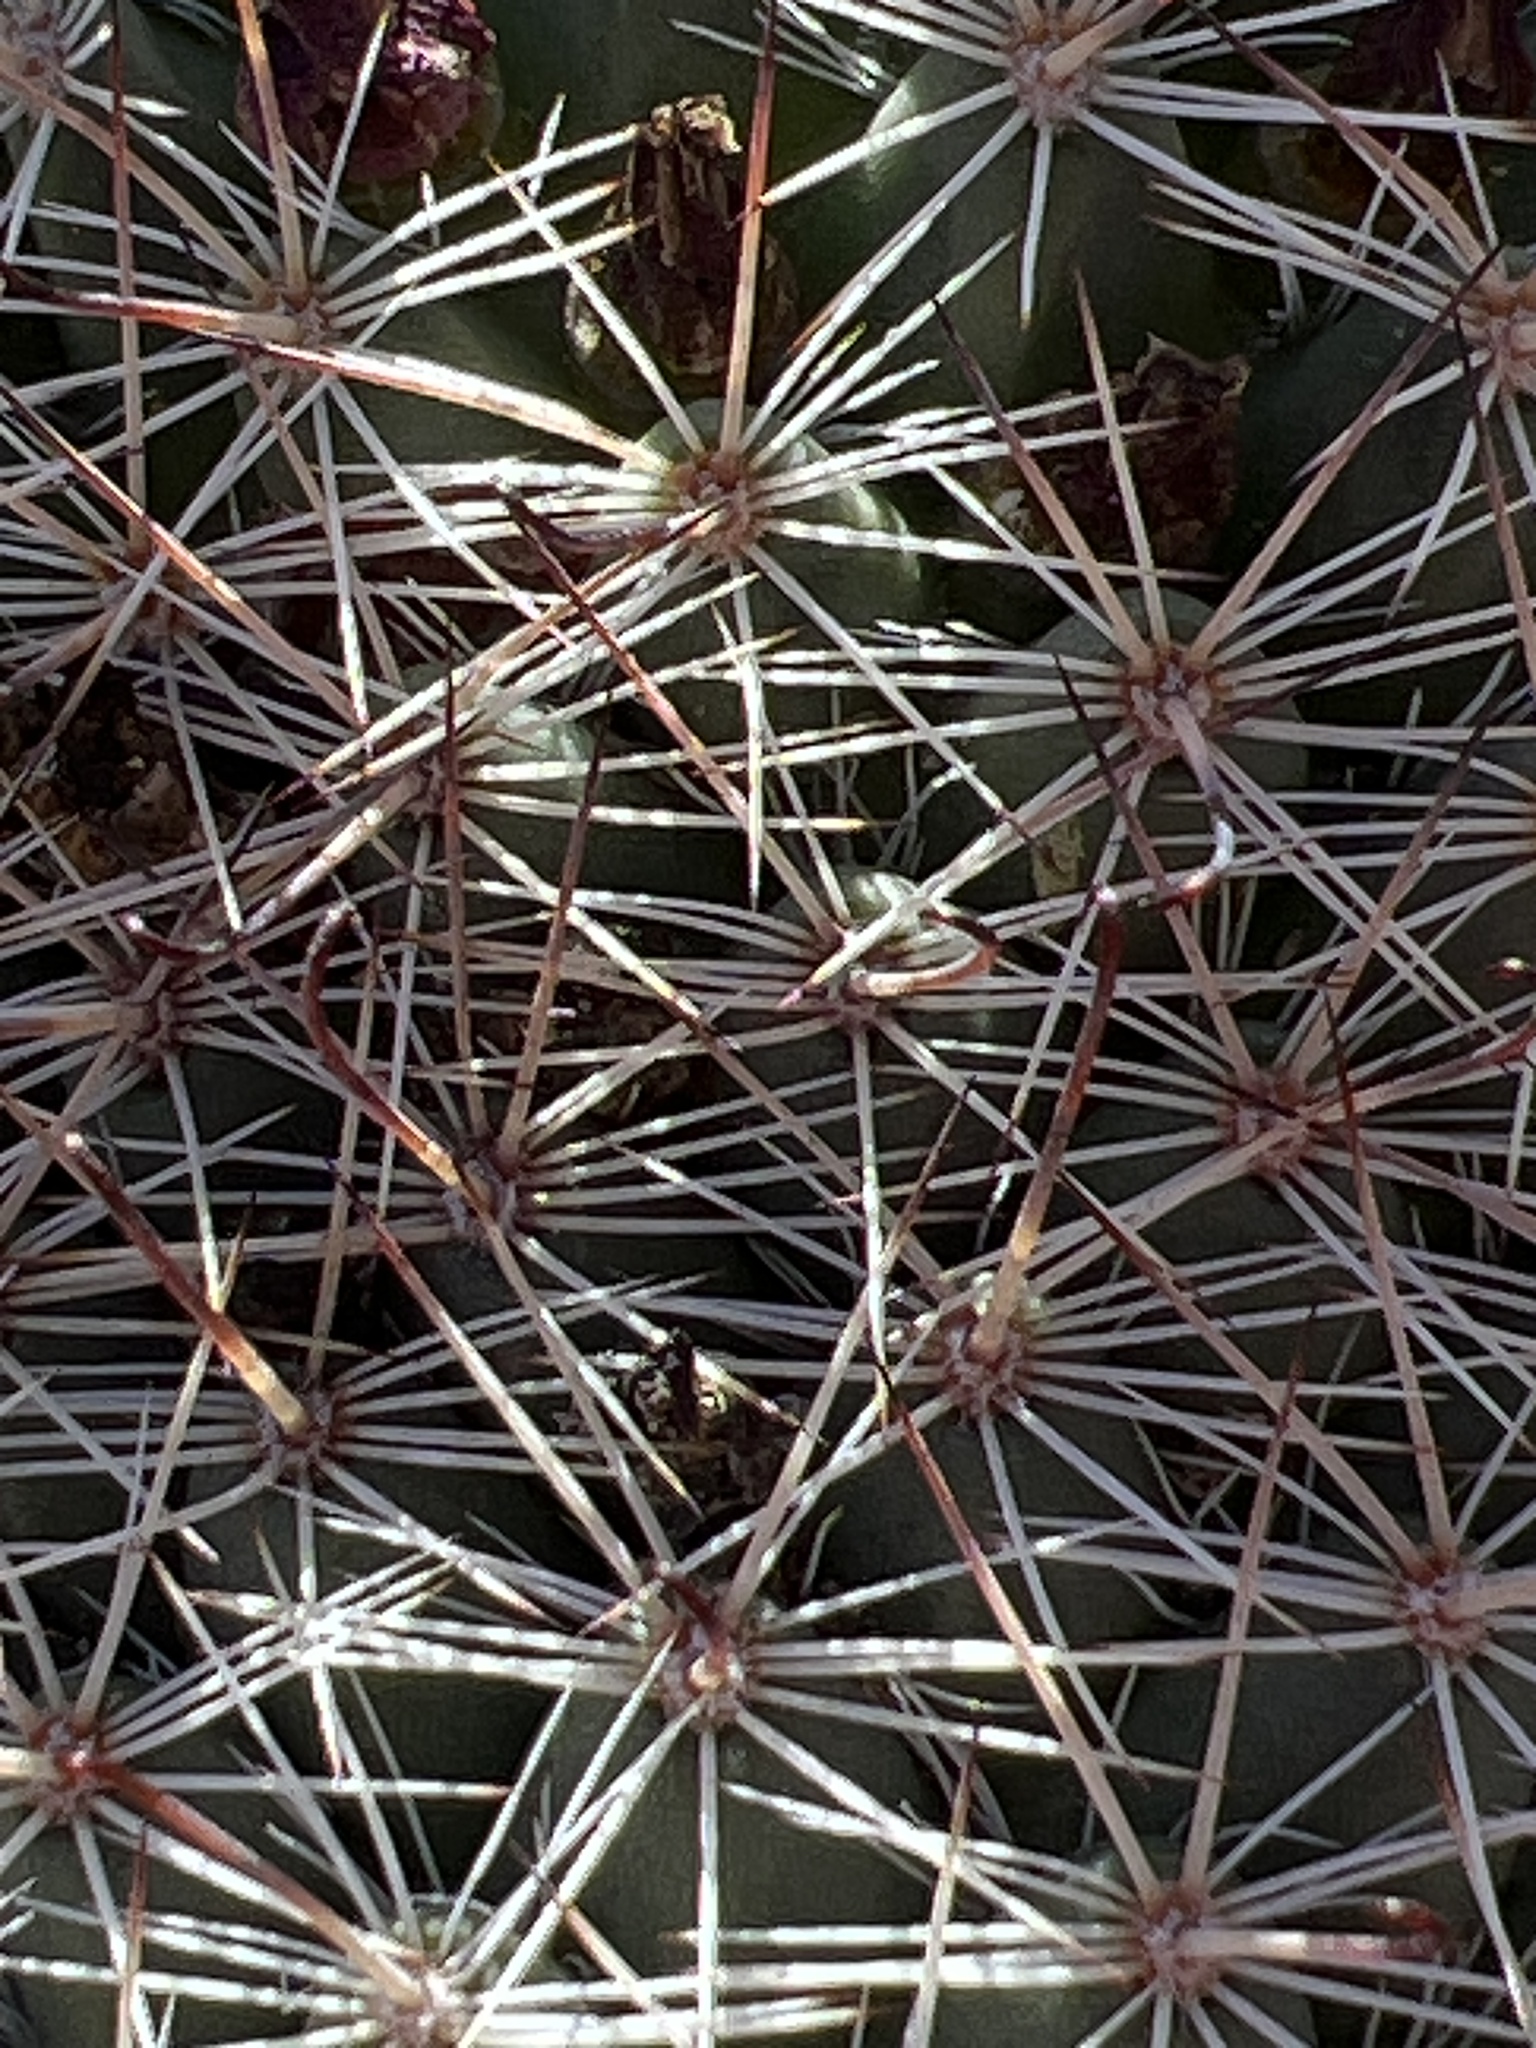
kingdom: Plantae
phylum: Tracheophyta
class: Magnoliopsida
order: Caryophyllales
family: Cactaceae
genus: Cochemiea
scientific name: Cochemiea dioica
